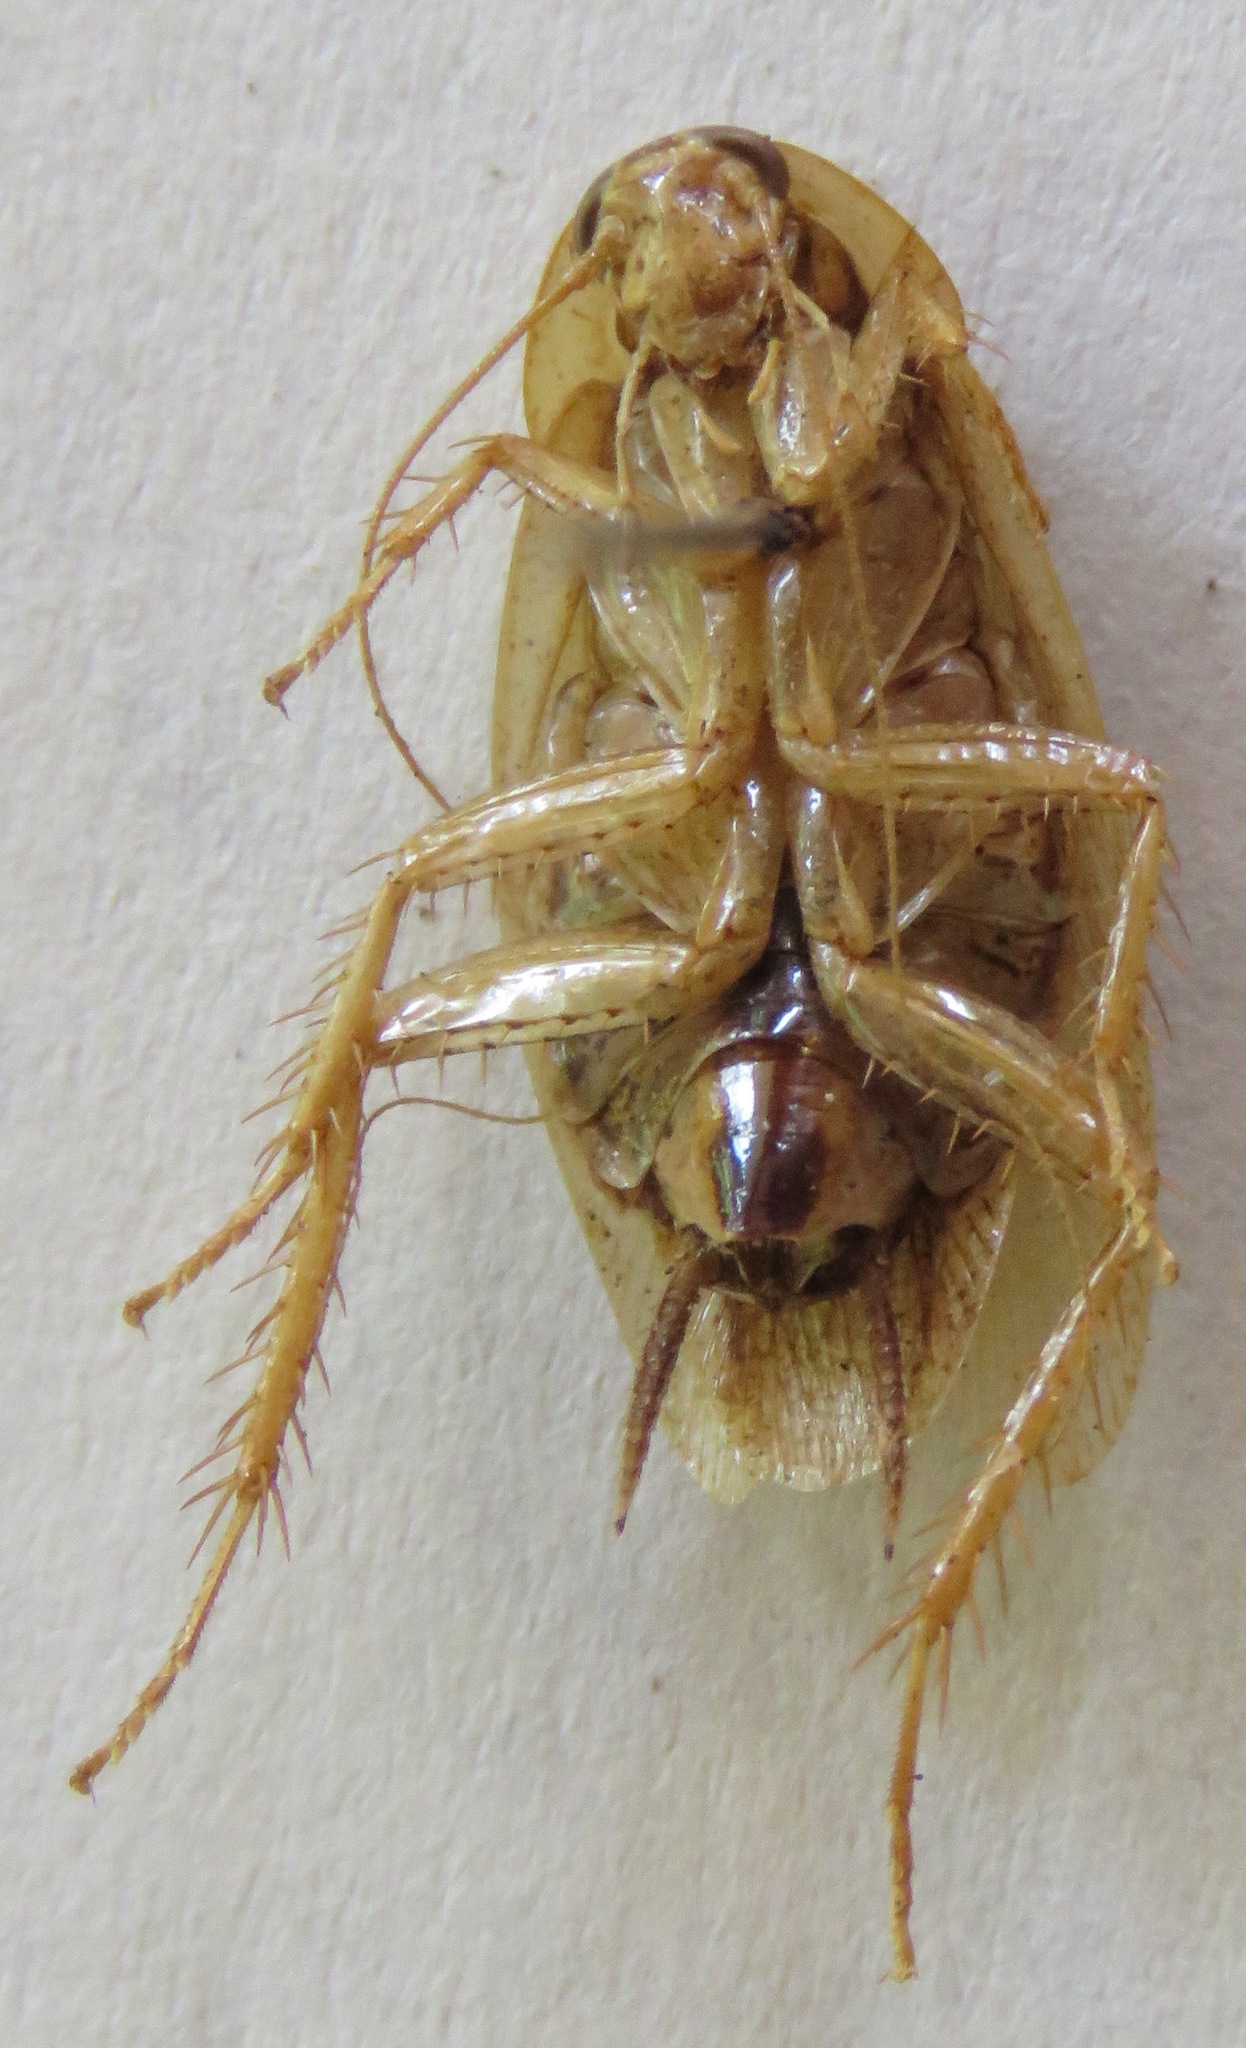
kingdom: Animalia
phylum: Arthropoda
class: Insecta
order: Blattodea
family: Ectobiidae
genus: Nahublattella
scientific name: Nahublattella fraterna
